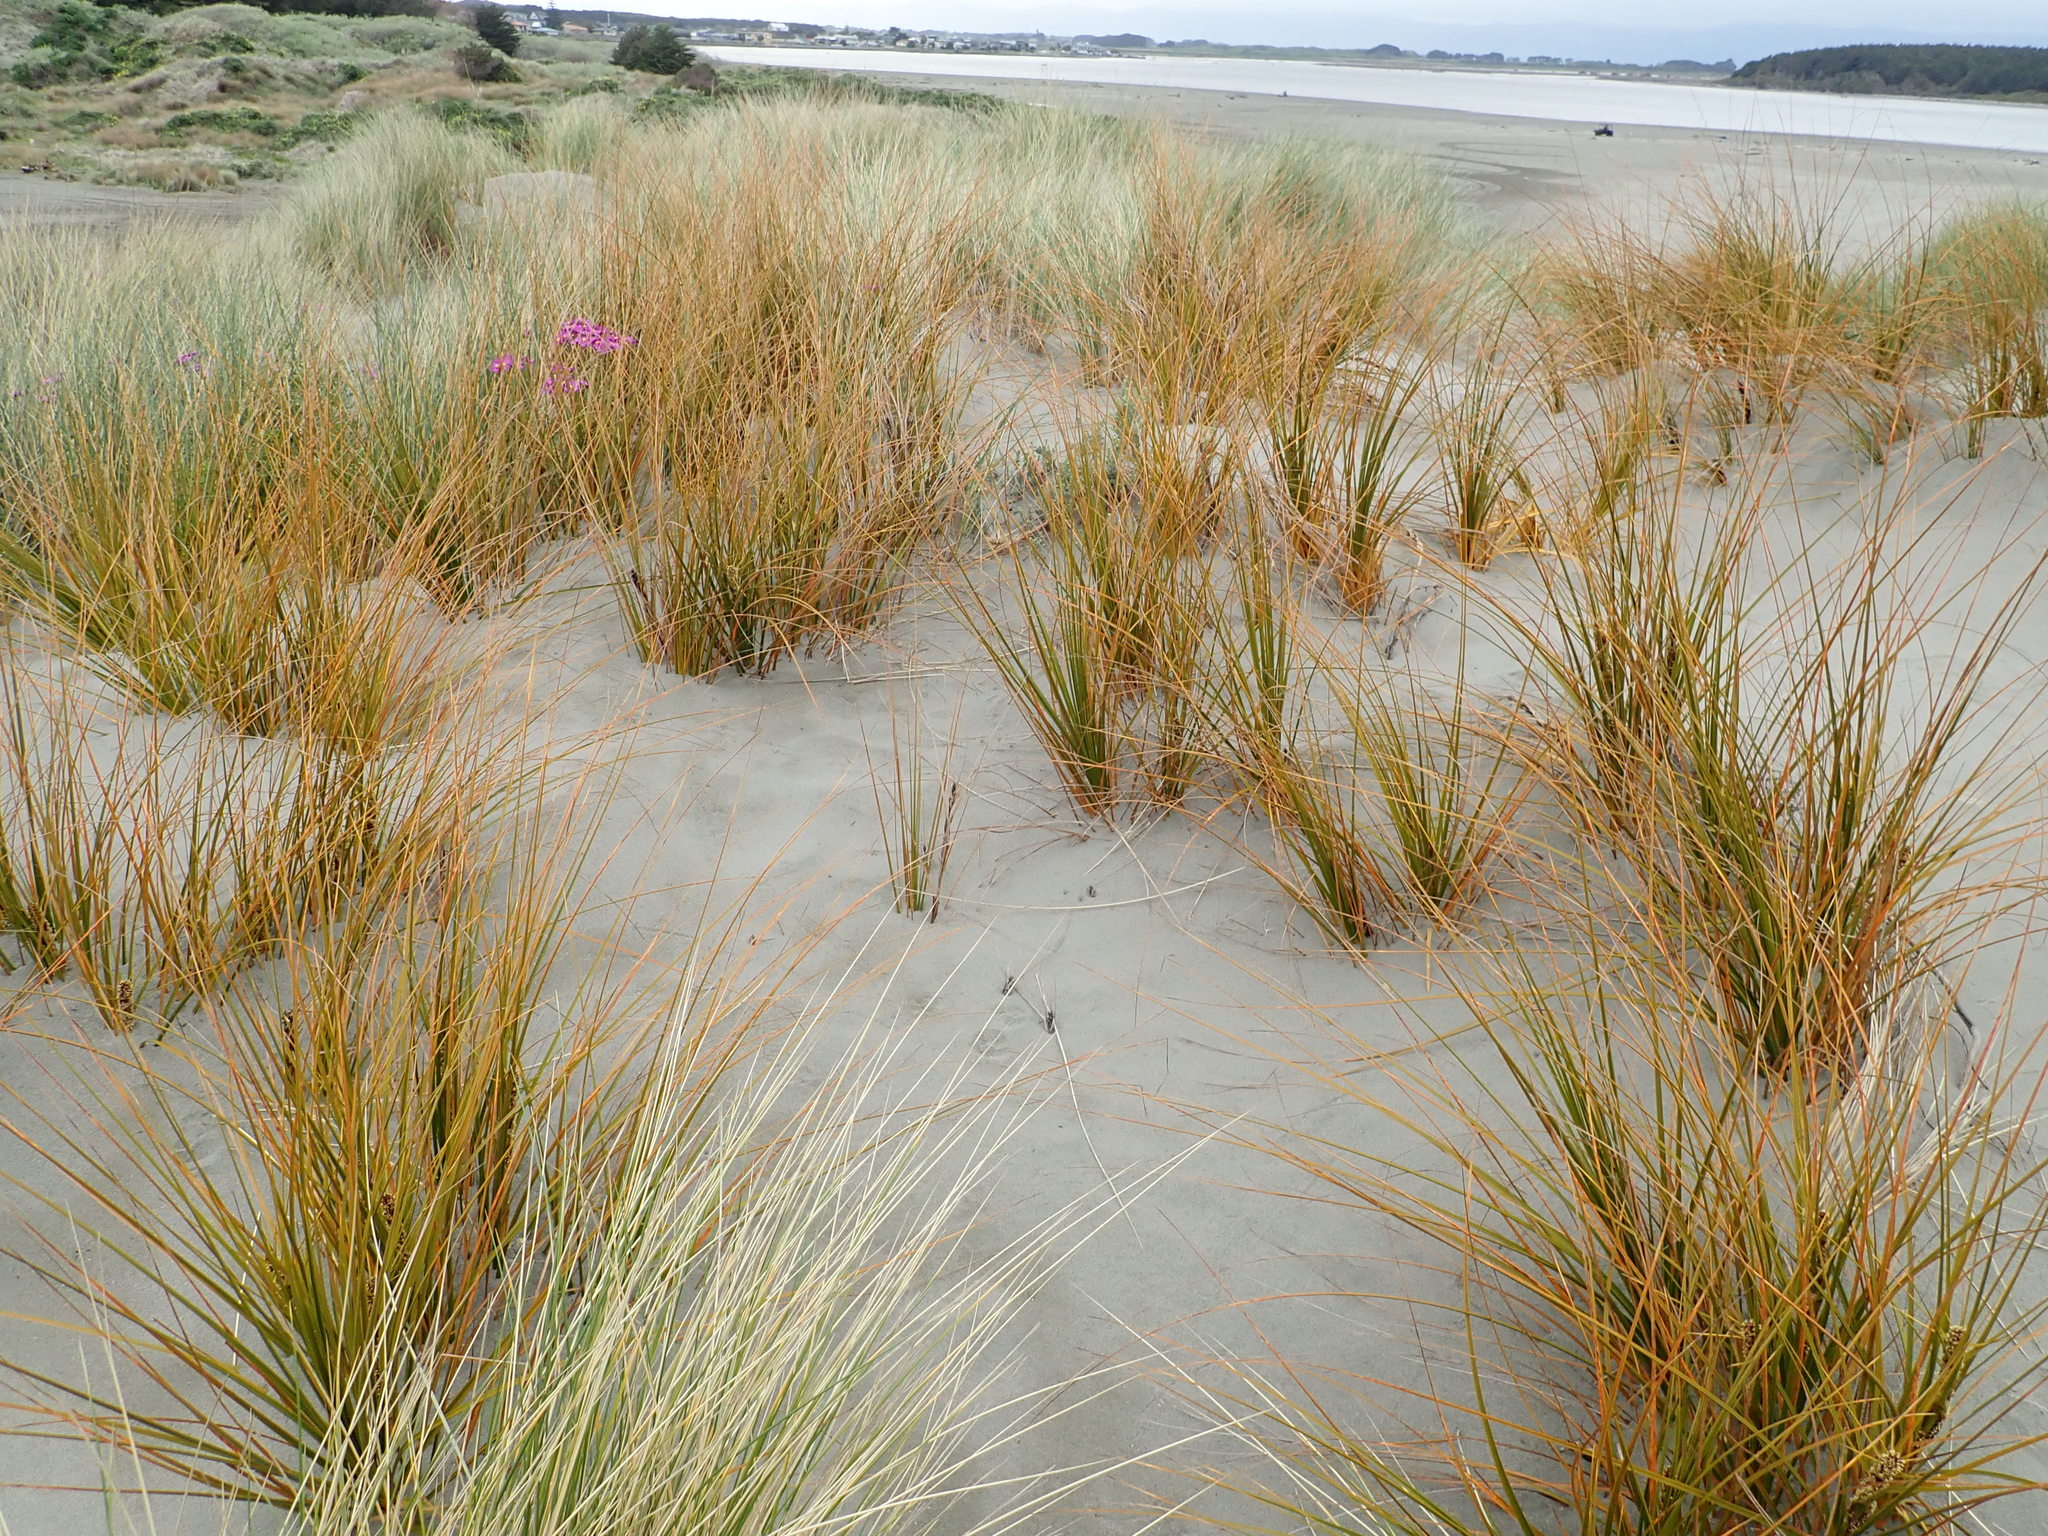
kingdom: Plantae
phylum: Tracheophyta
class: Liliopsida
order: Poales
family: Cyperaceae
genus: Ficinia
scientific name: Ficinia spiralis
